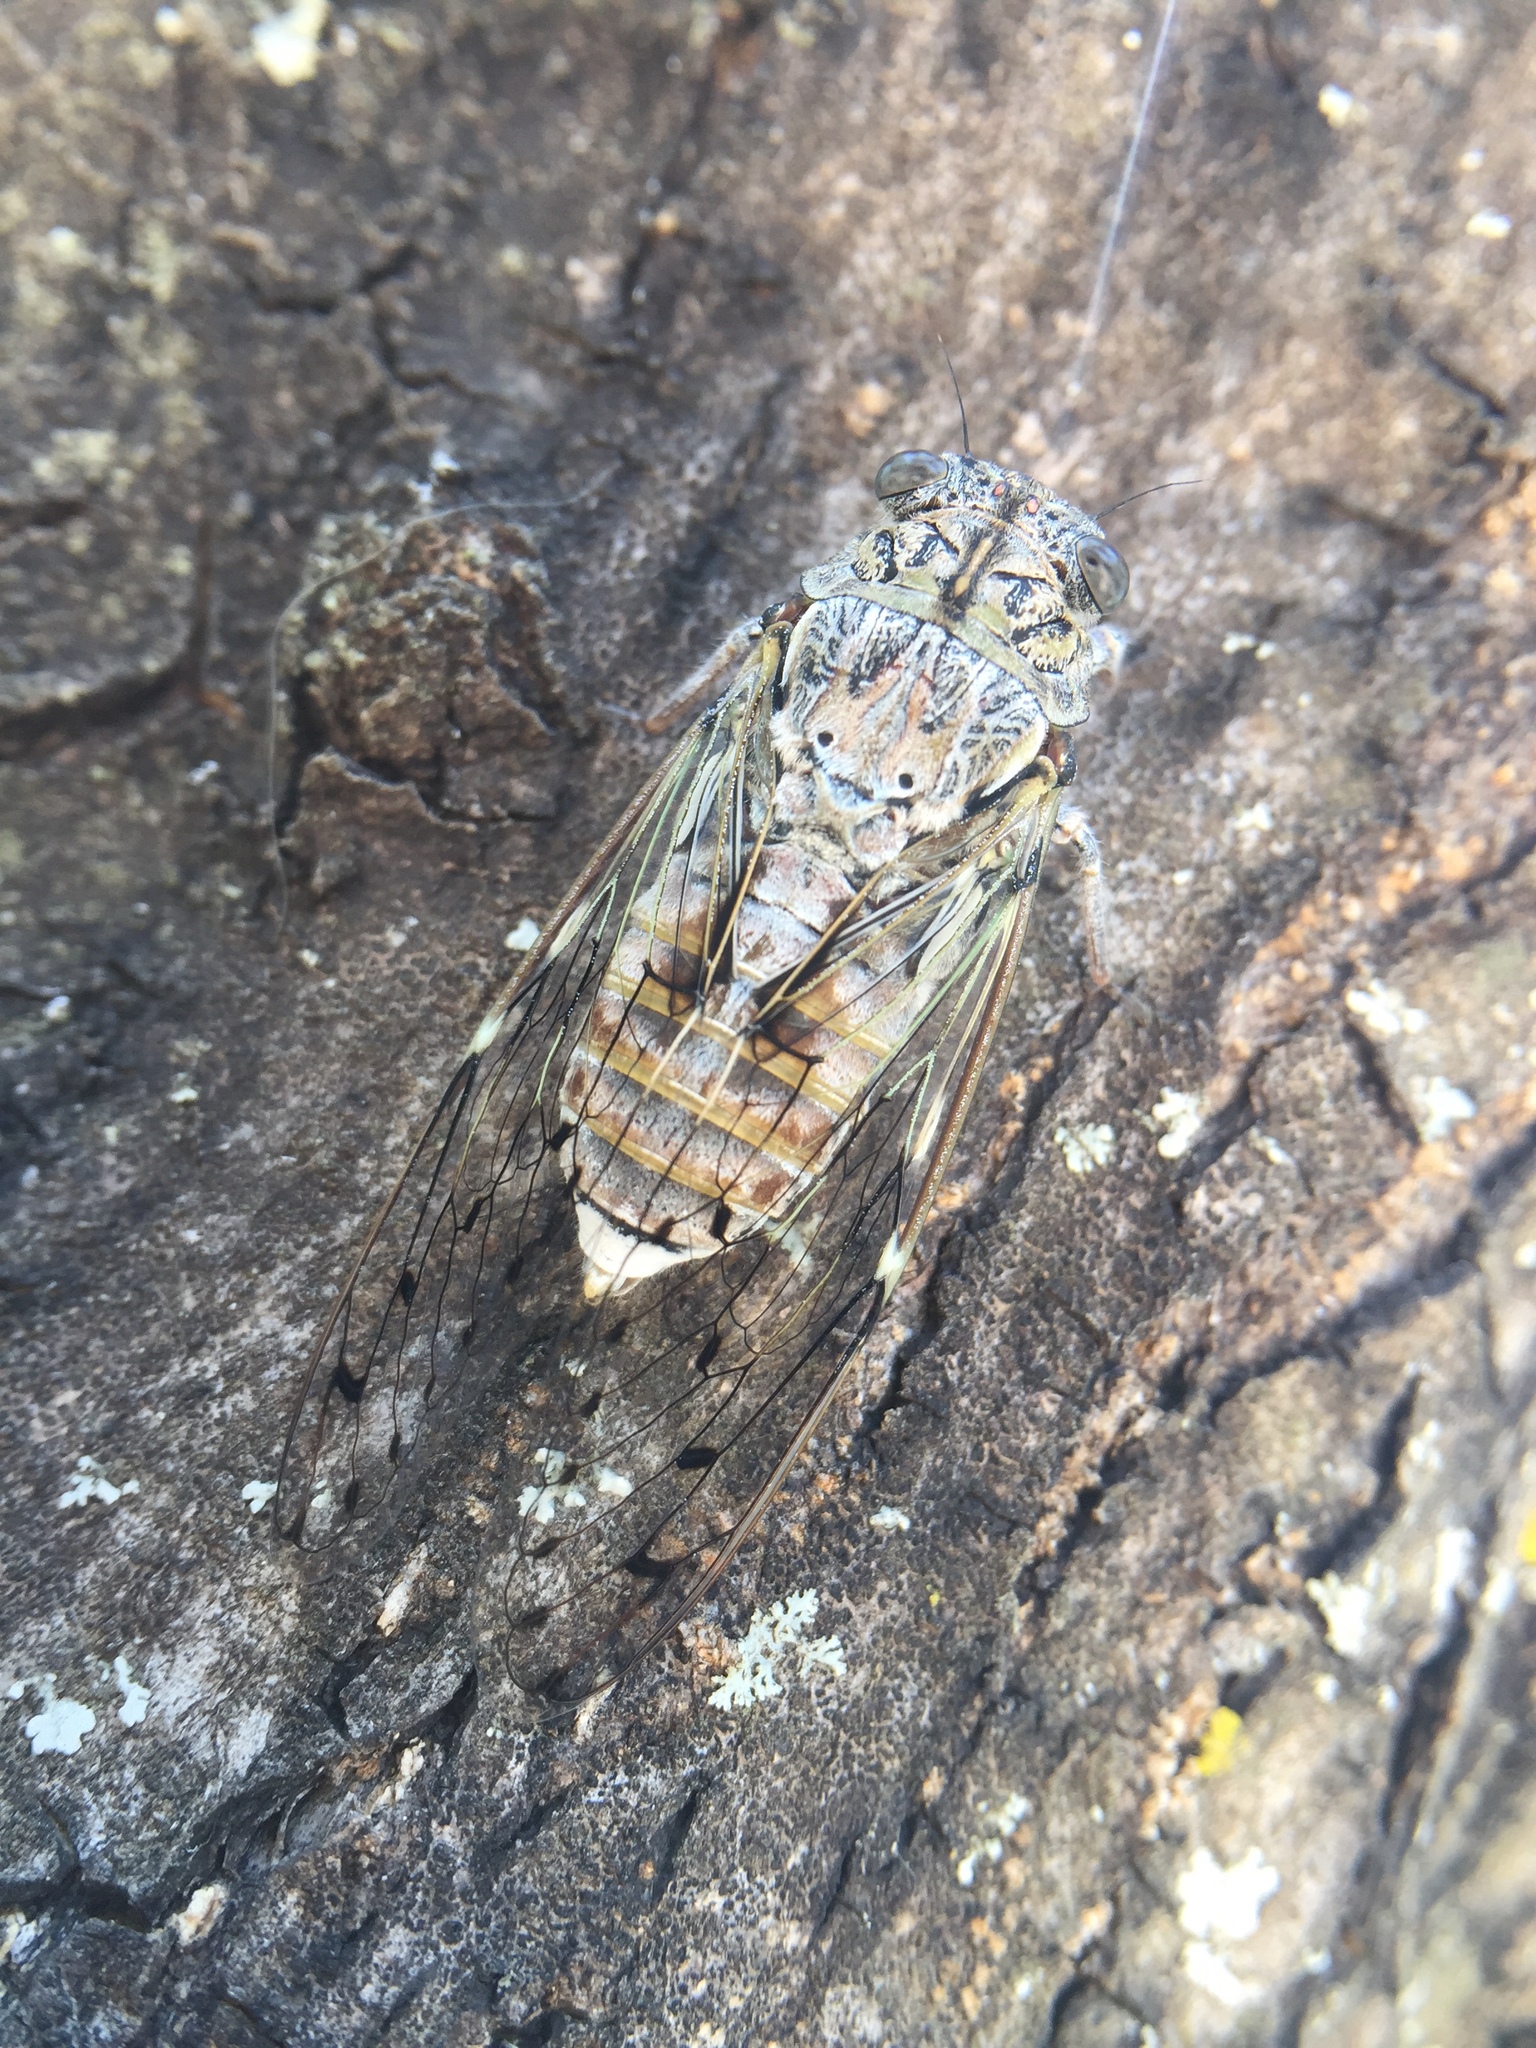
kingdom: Animalia
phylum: Arthropoda
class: Insecta
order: Hemiptera
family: Cicadidae
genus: Cicada
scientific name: Cicada orni
